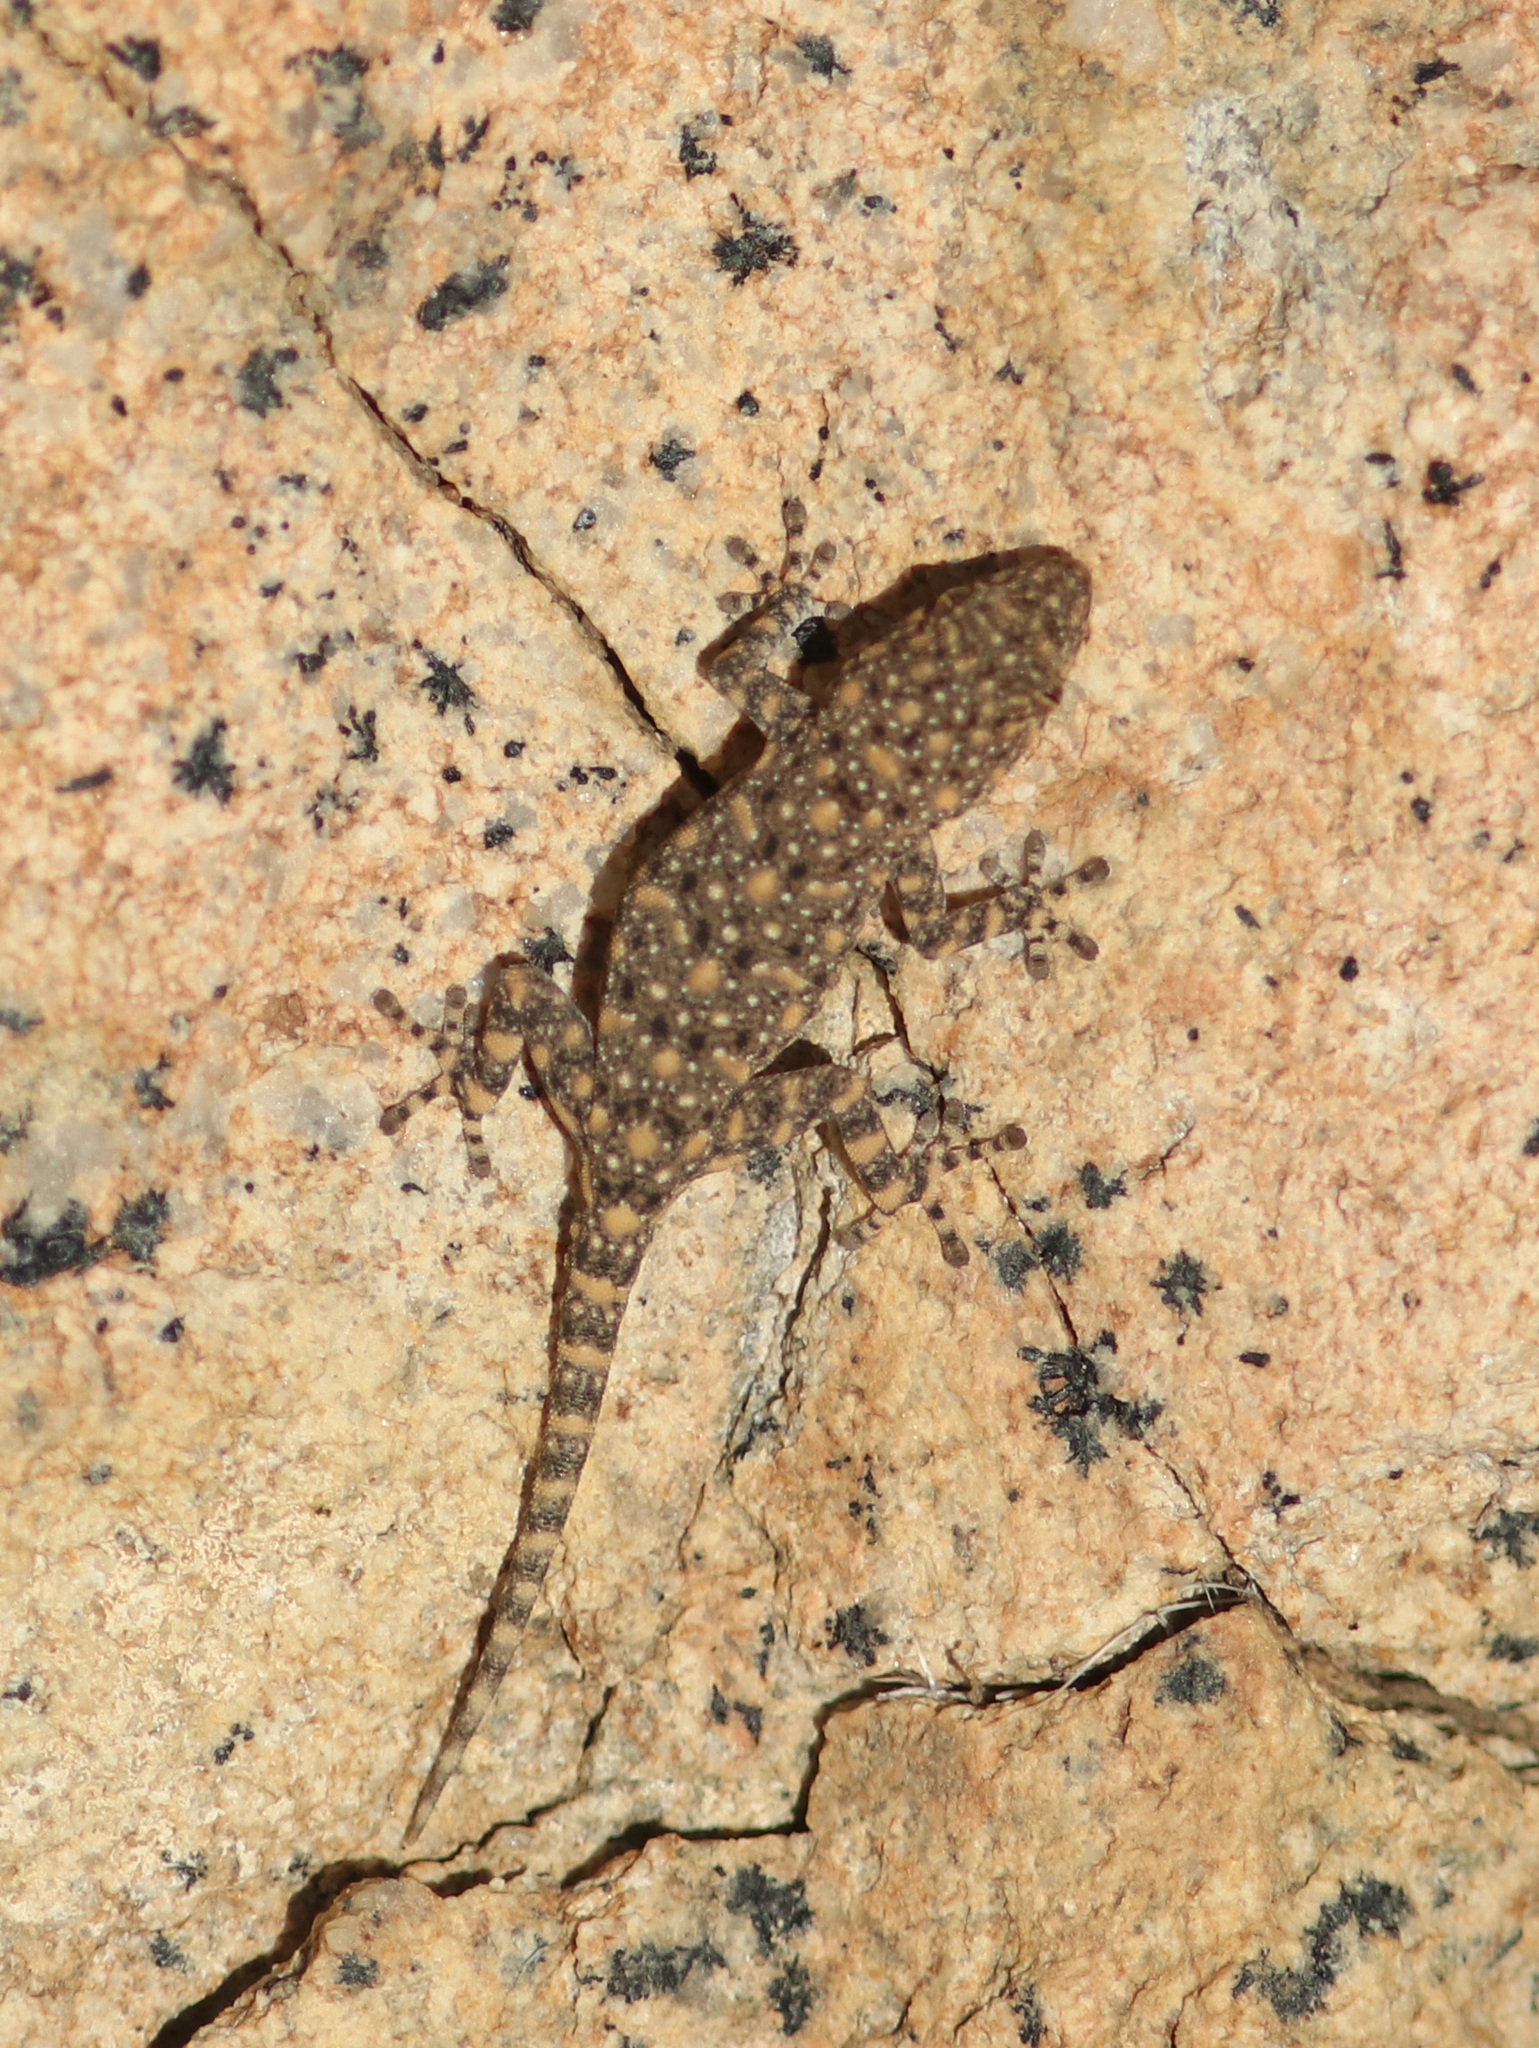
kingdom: Animalia
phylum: Chordata
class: Squamata
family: Gekkonidae
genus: Rhoptropus
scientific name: Rhoptropus barnardi
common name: Barnard’s namib day gecko
